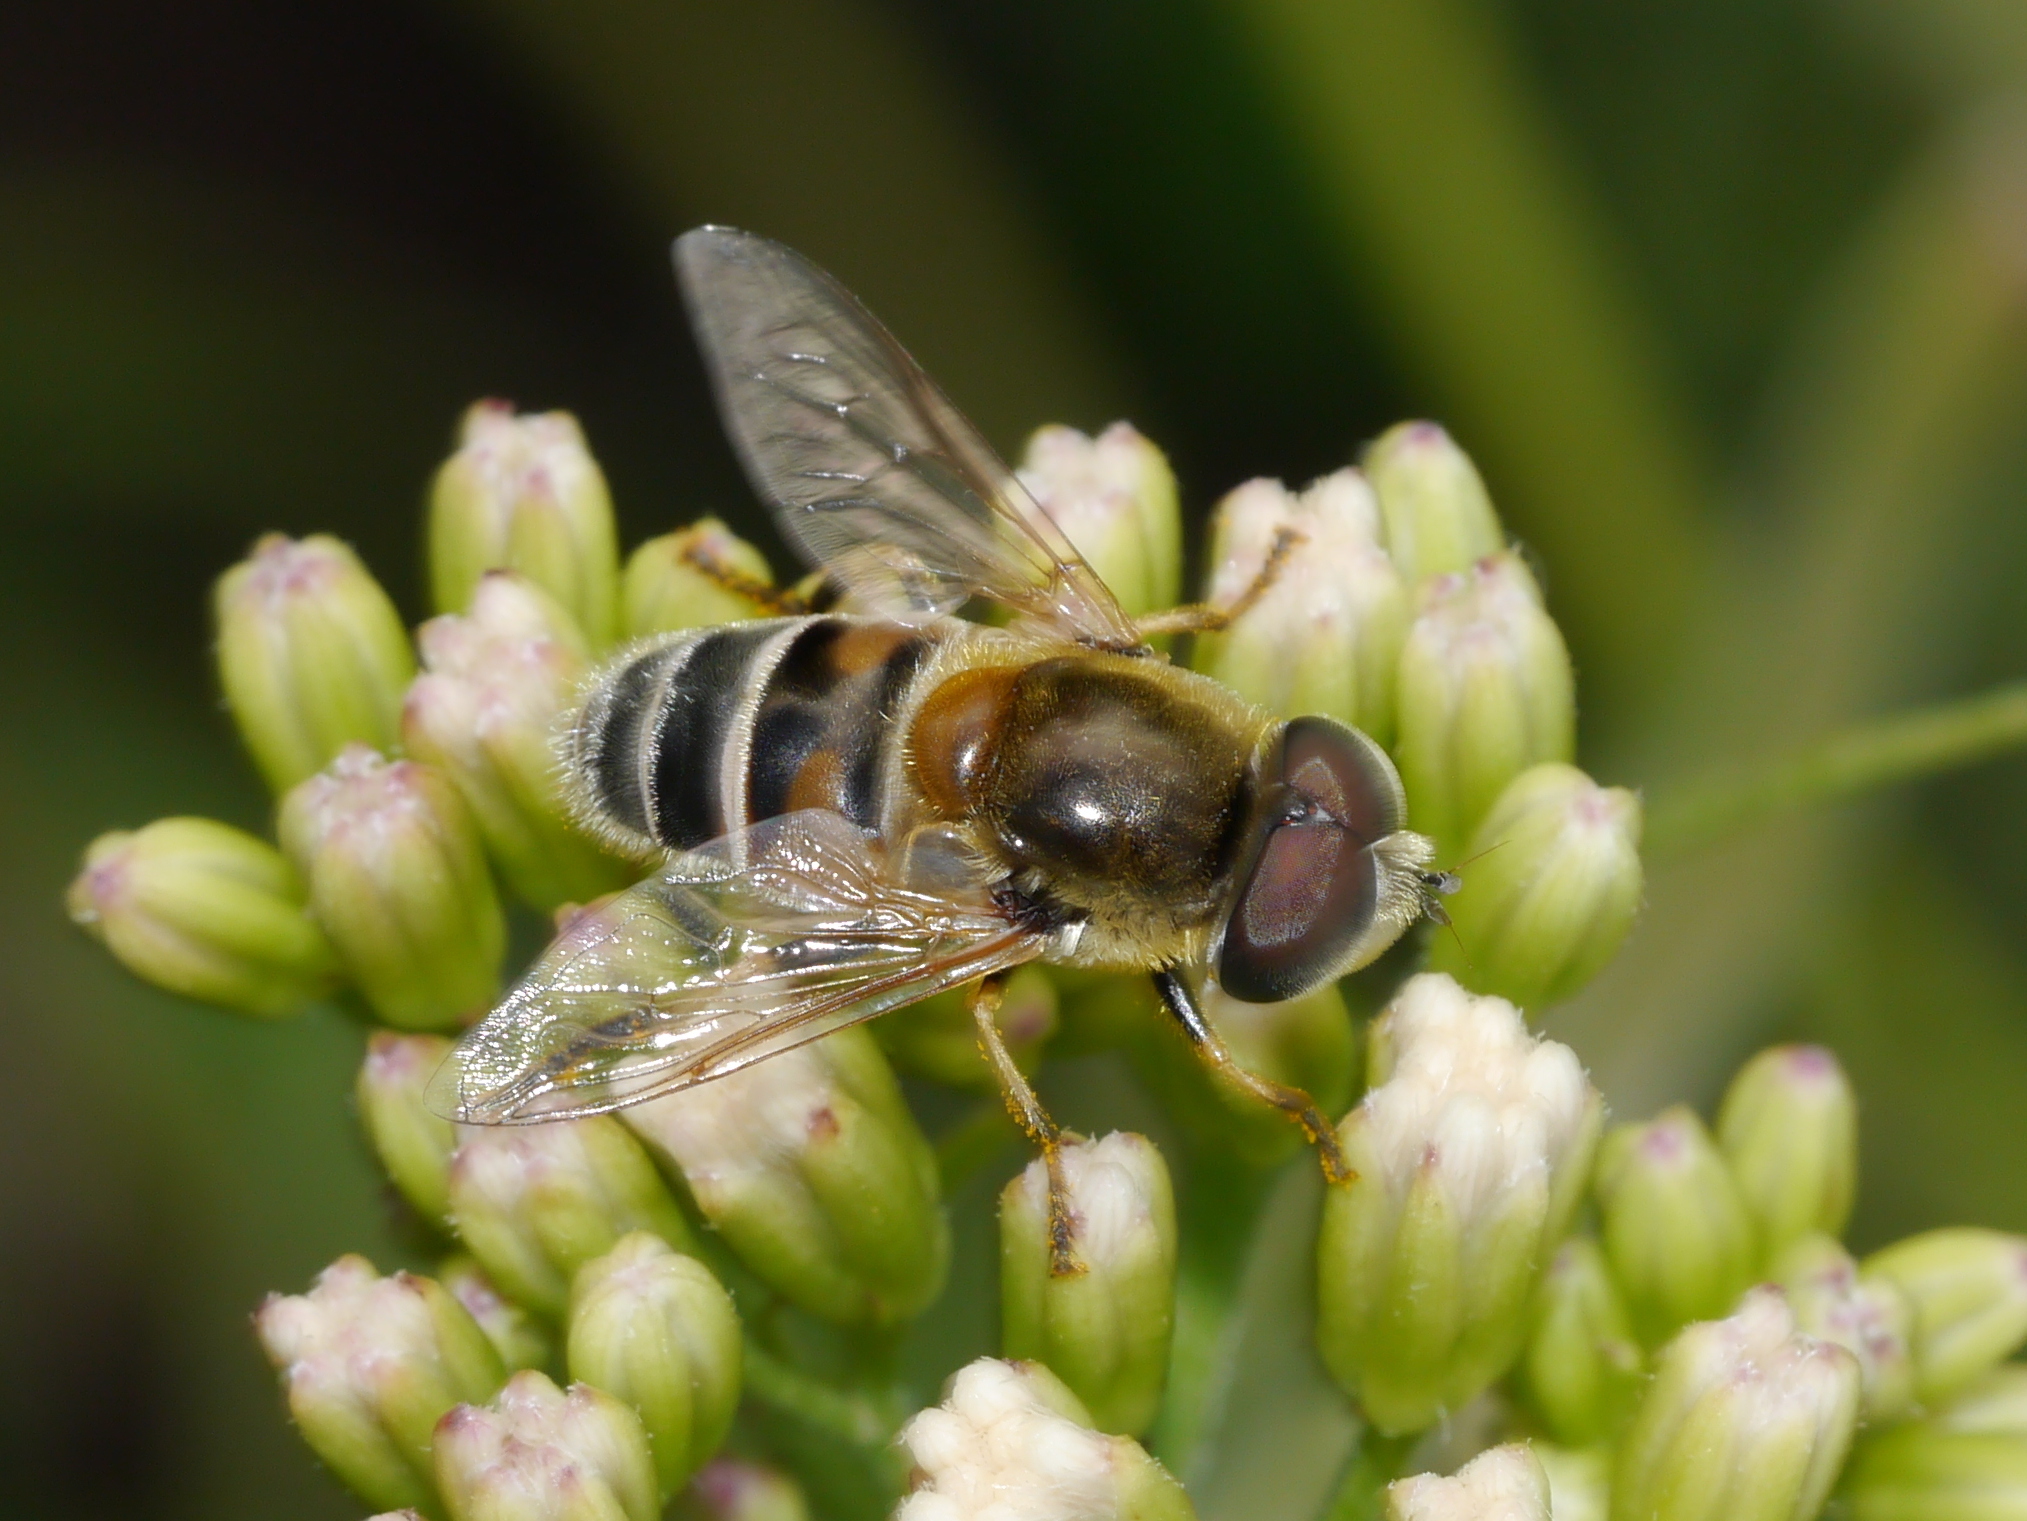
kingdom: Animalia
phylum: Arthropoda
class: Insecta
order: Diptera
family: Syrphidae
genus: Eristalis
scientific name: Eristalis stipator
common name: Yellow-shouldered drone fly
